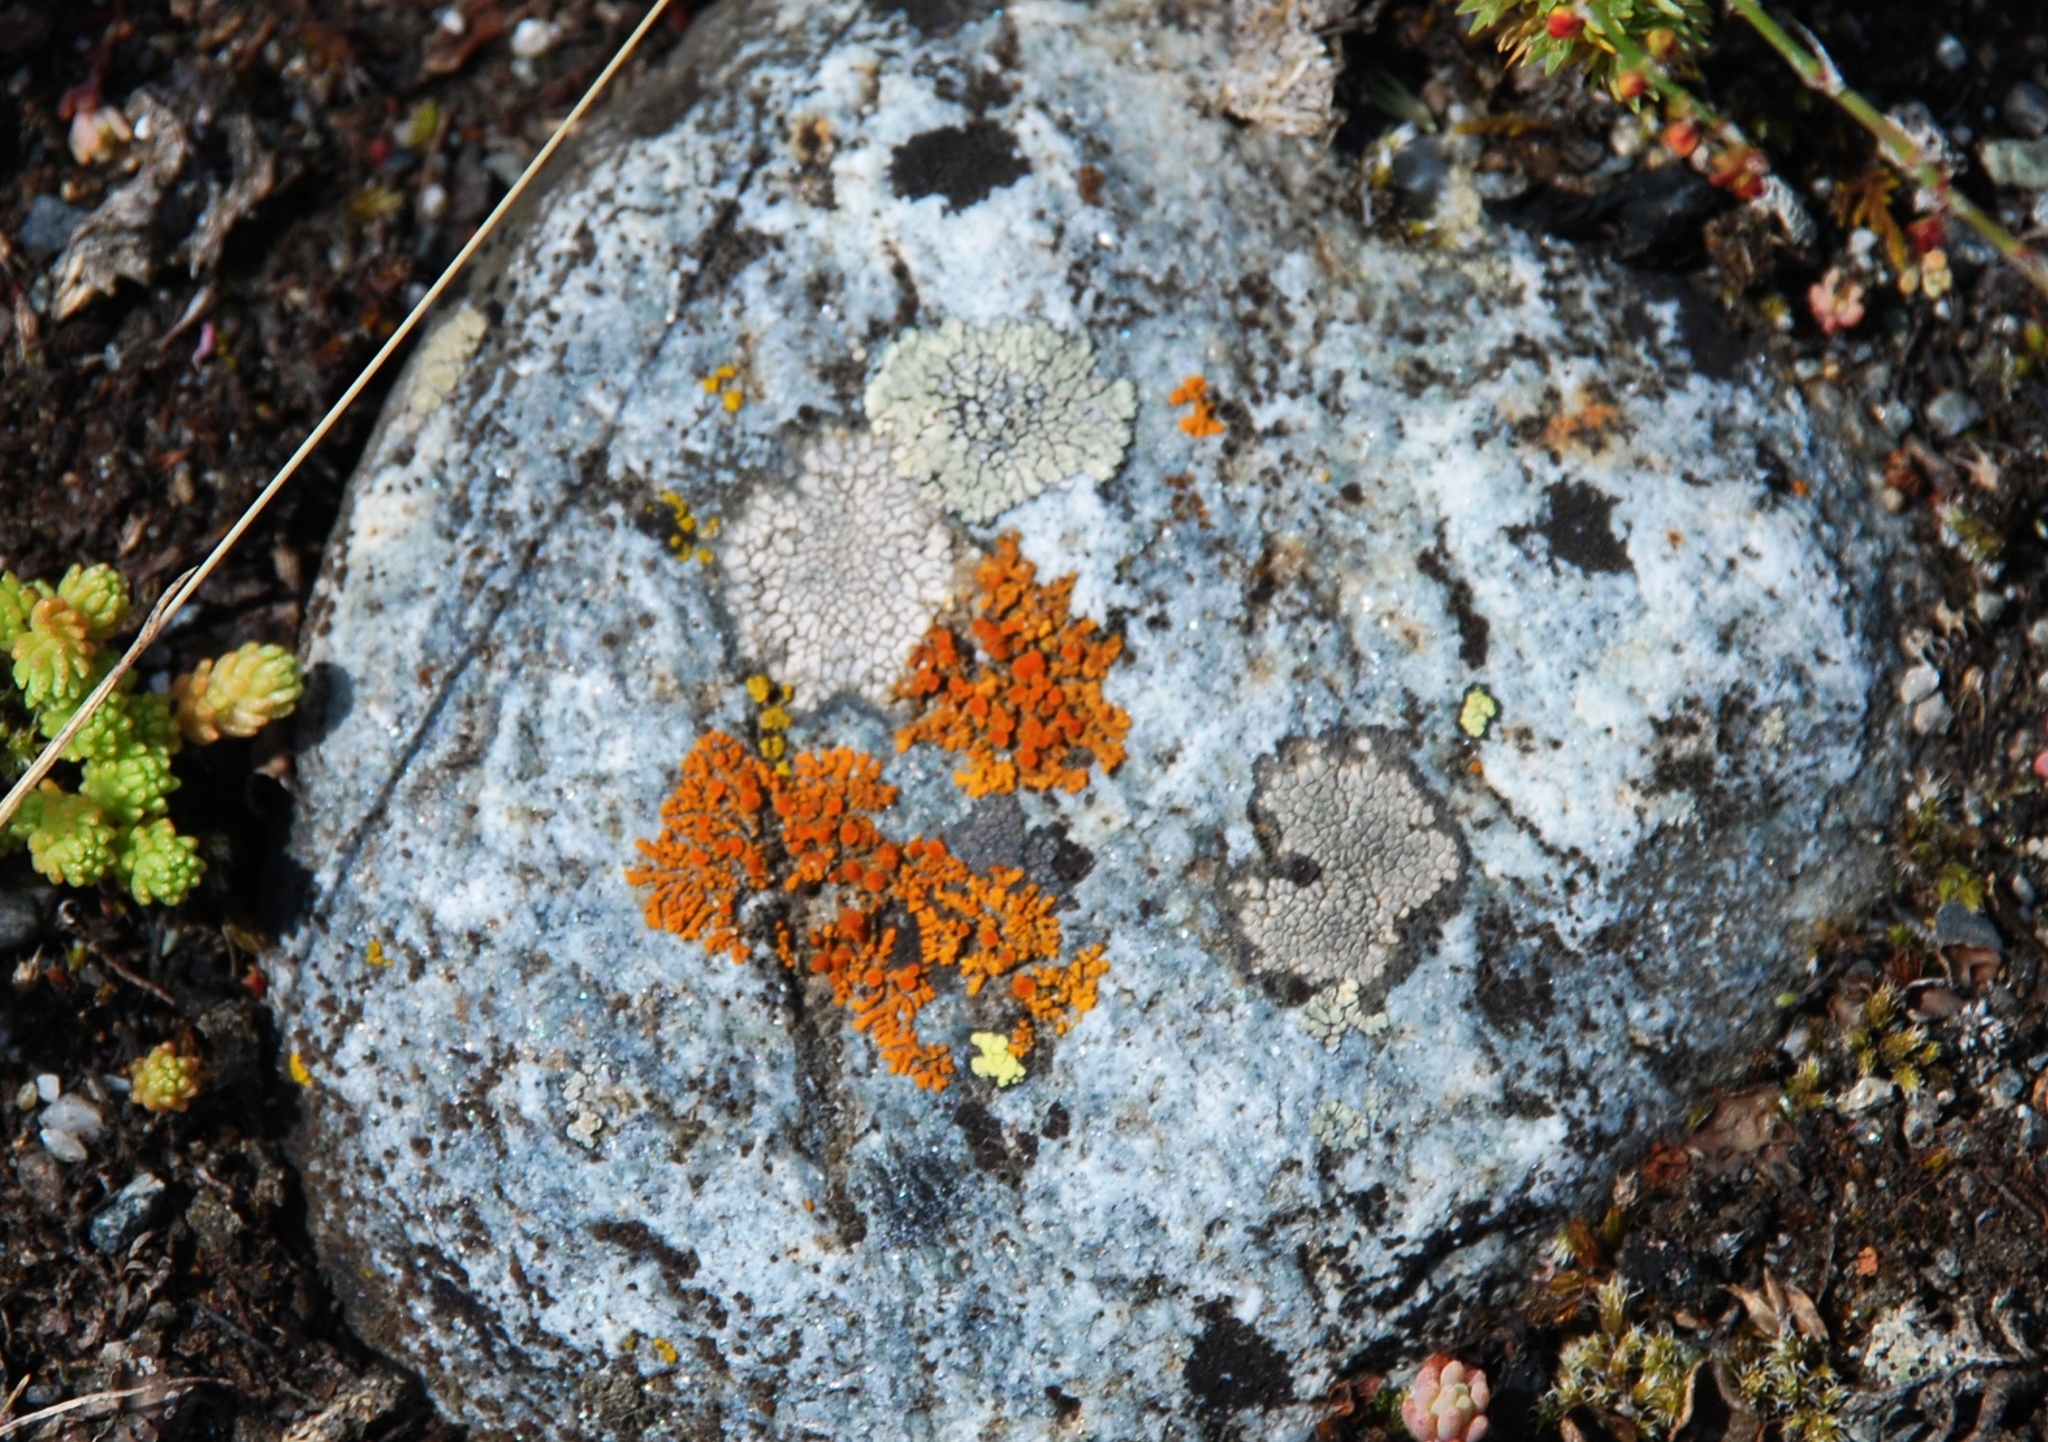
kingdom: Fungi
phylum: Ascomycota
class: Lecanoromycetes
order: Teloschistales
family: Teloschistaceae
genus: Xanthoria
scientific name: Xanthoria elegans
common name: Elegant sunburst lichen
